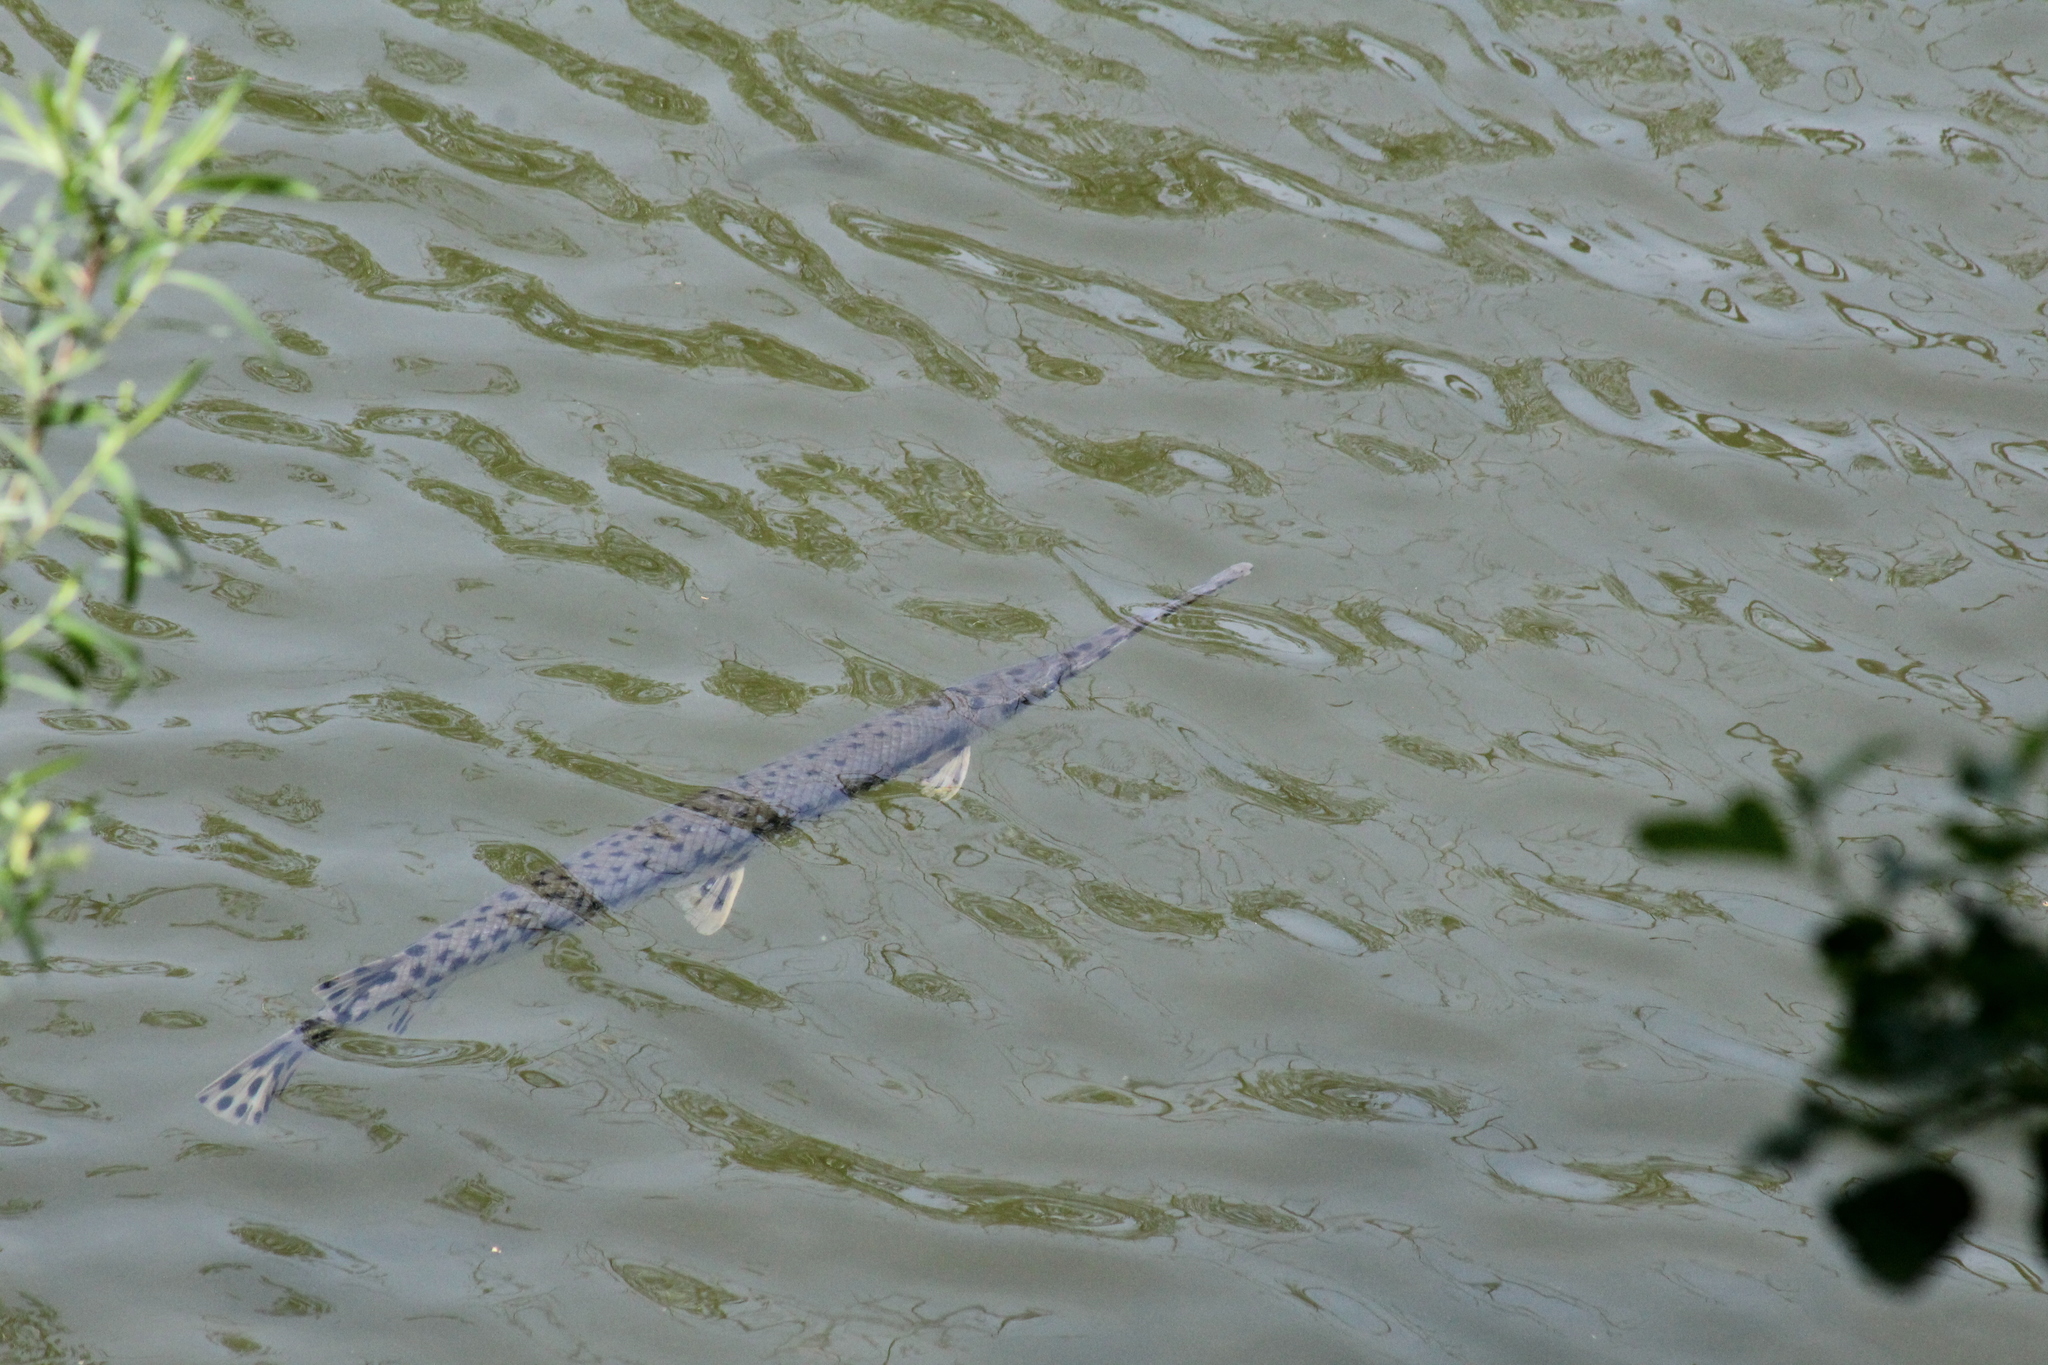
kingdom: Animalia
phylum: Chordata
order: Lepisosteiformes
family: Lepisosteidae
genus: Lepisosteus
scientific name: Lepisosteus osseus
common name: Longnose gar
